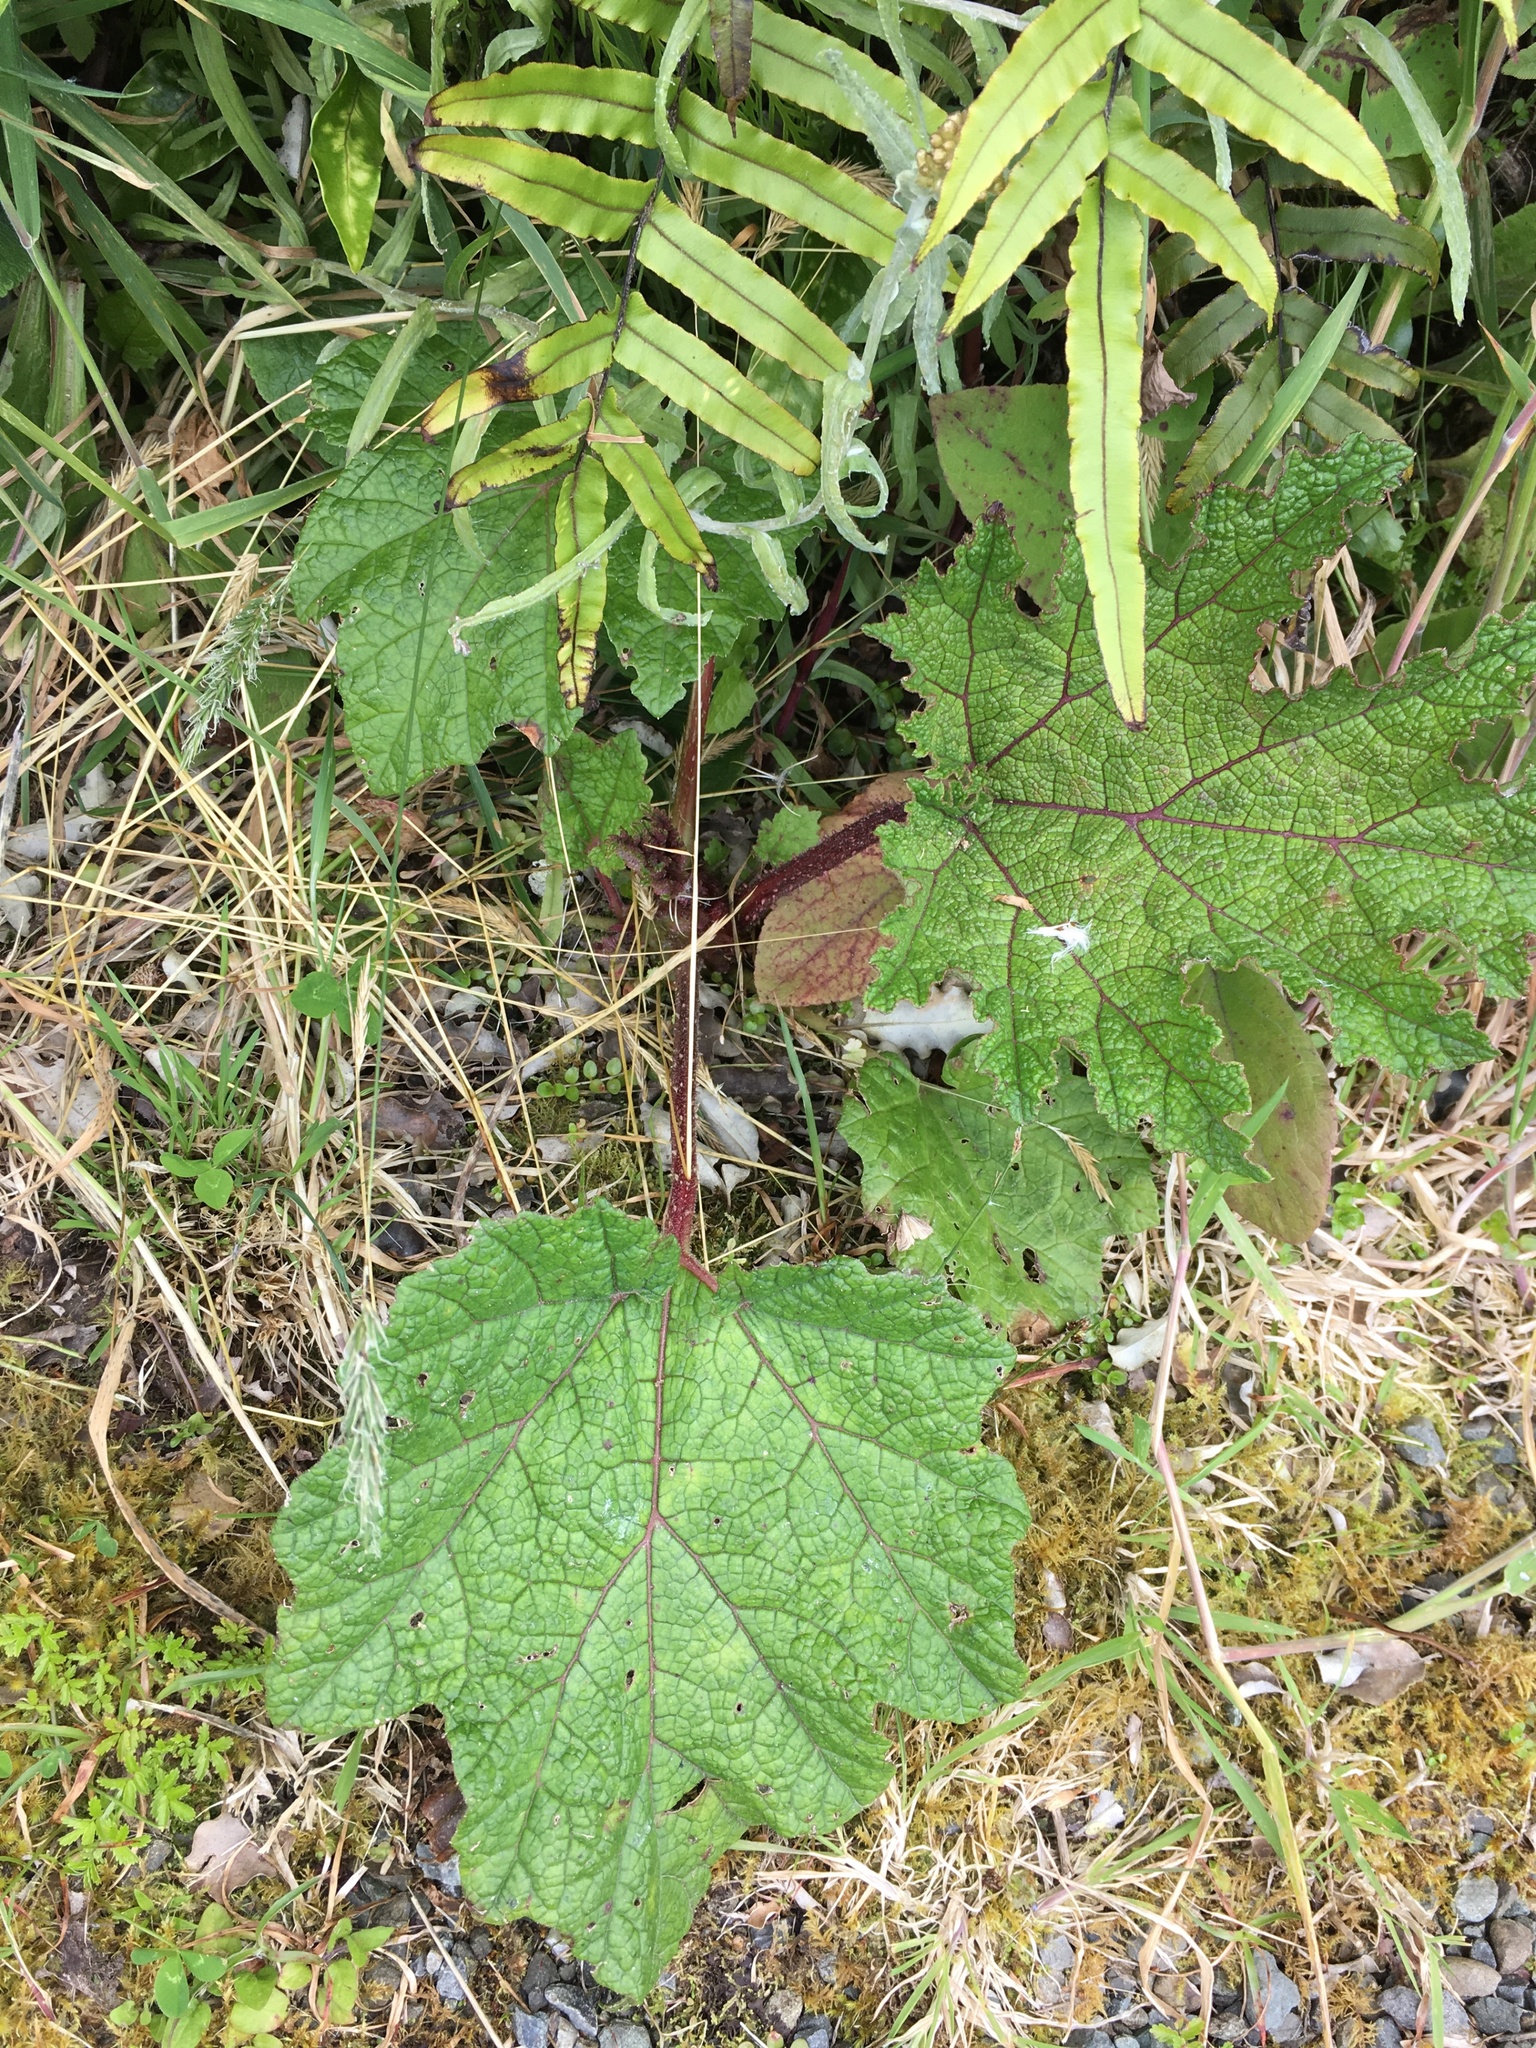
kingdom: Plantae
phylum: Tracheophyta
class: Magnoliopsida
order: Gunnerales
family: Gunneraceae
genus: Gunnera
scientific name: Gunnera tinctoria
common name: Giant-rhubarb
